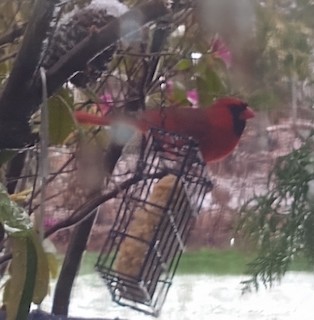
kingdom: Animalia
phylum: Chordata
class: Aves
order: Passeriformes
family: Cardinalidae
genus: Cardinalis
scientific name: Cardinalis cardinalis
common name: Northern cardinal
